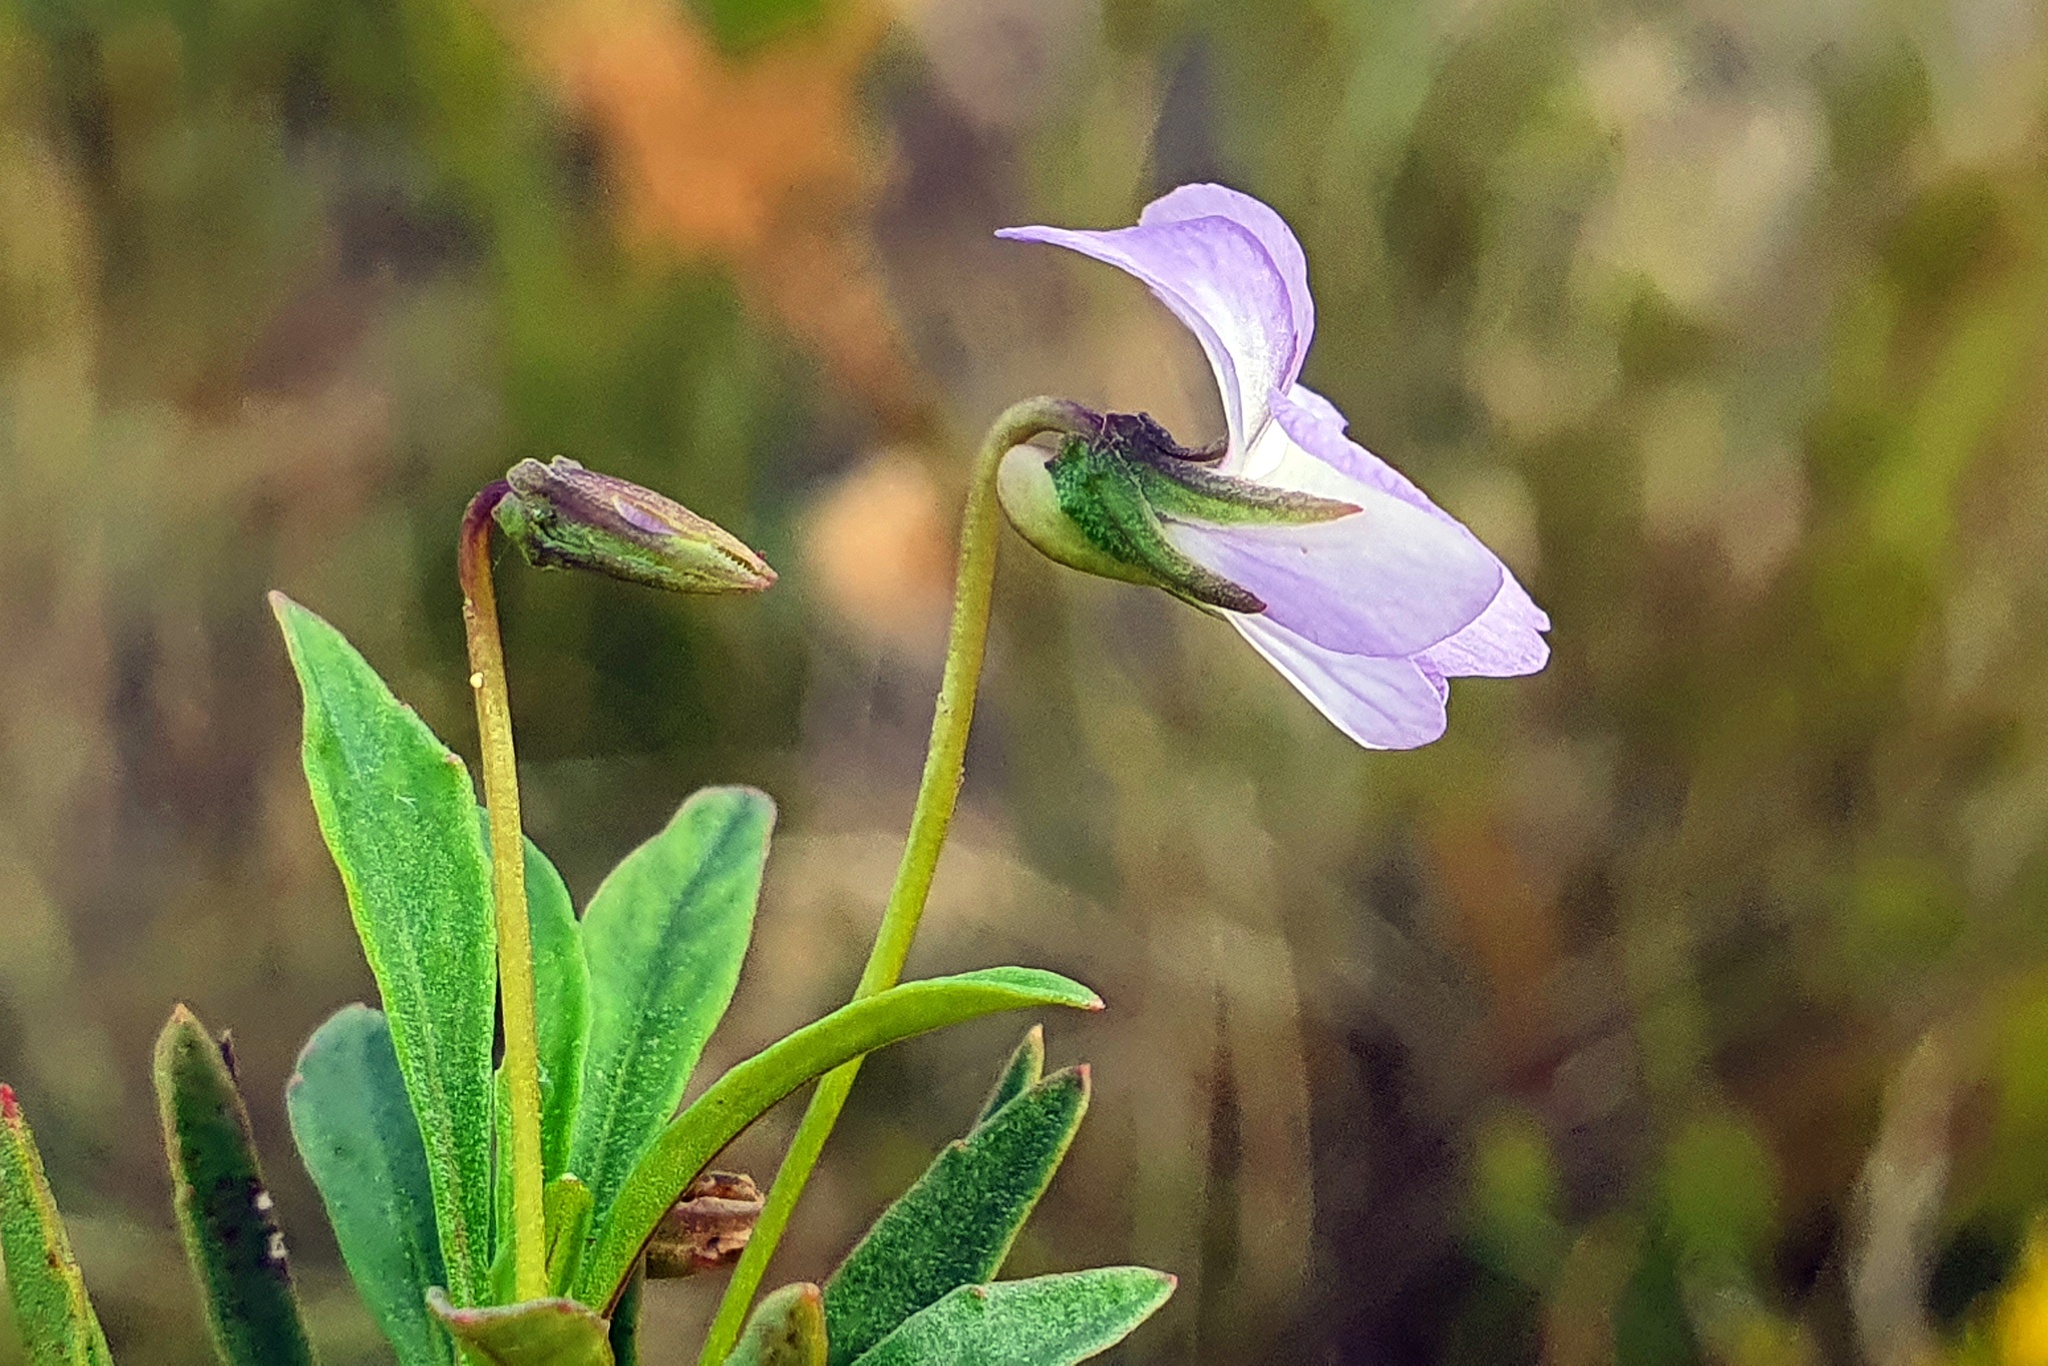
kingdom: Plantae
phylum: Tracheophyta
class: Magnoliopsida
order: Malpighiales
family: Violaceae
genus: Viola
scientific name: Viola arborescens
